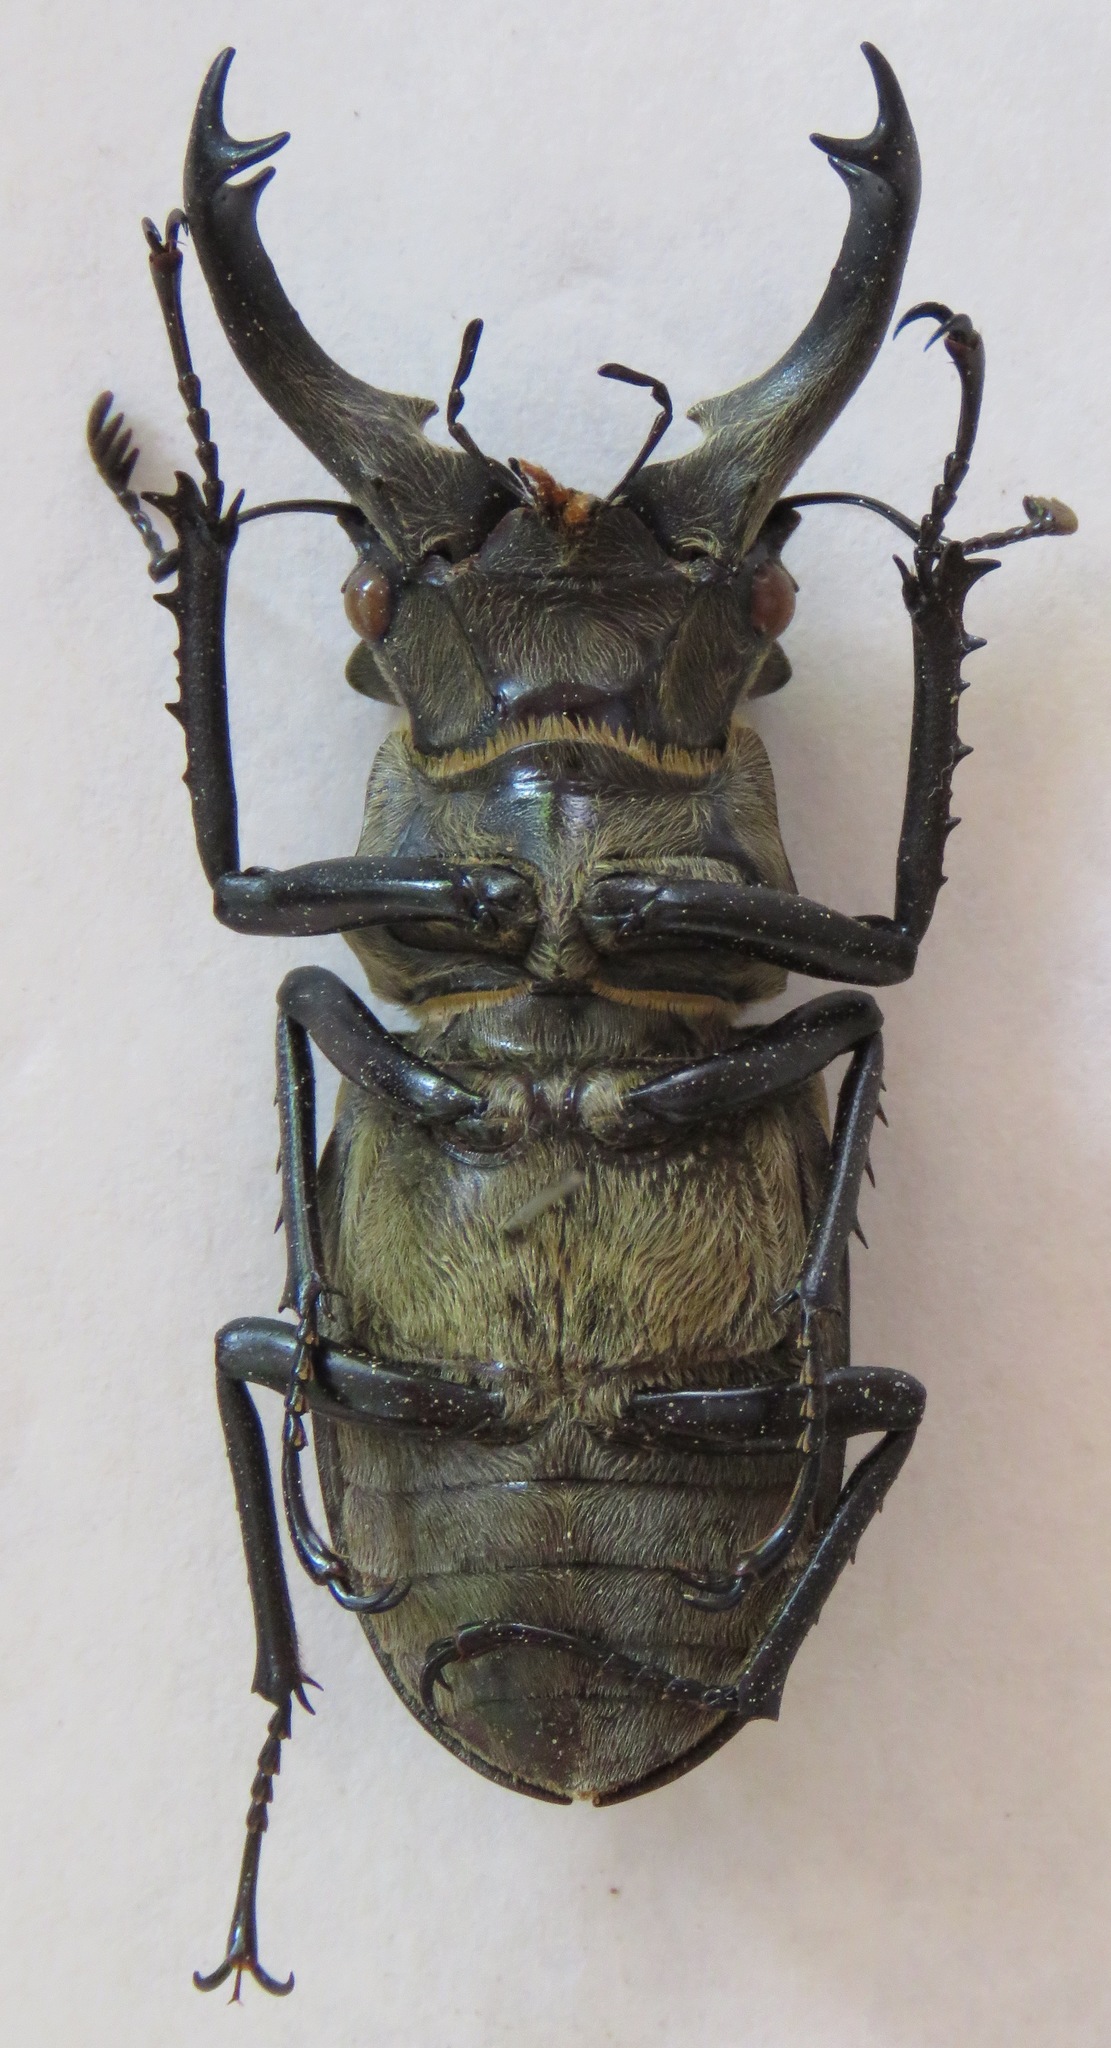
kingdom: Animalia
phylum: Arthropoda
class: Insecta
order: Coleoptera
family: Lucanidae
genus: Lucanus
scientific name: Lucanus sericeus
